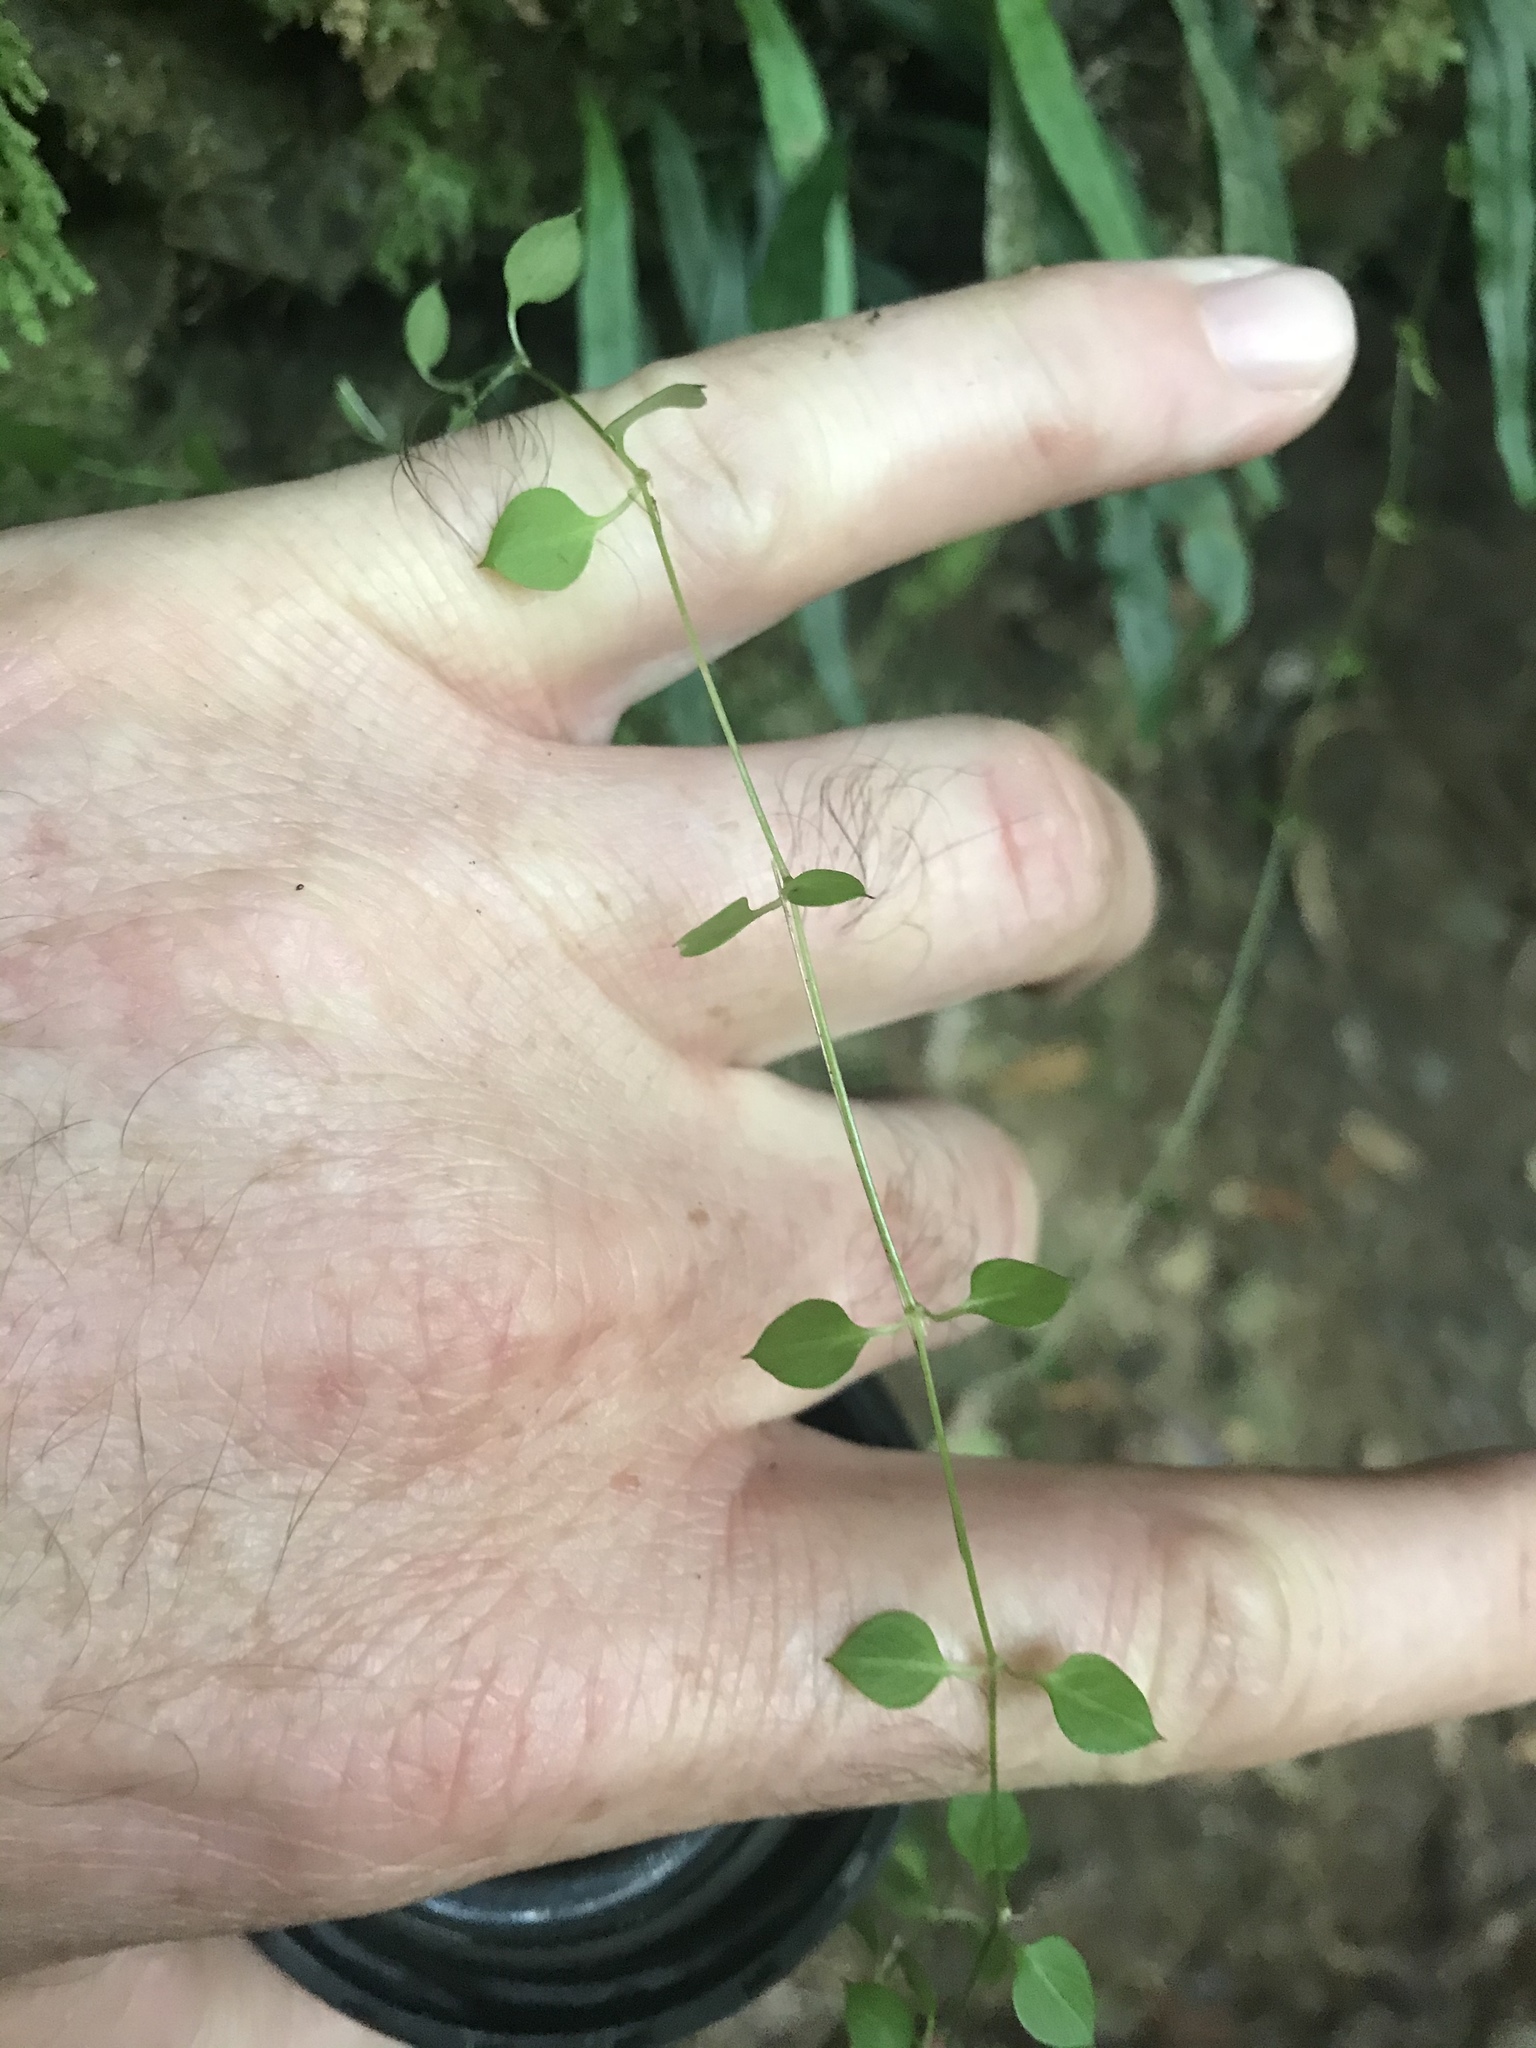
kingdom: Plantae
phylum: Tracheophyta
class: Magnoliopsida
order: Caryophyllales
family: Caryophyllaceae
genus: Stellaria
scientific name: Stellaria parviflora
